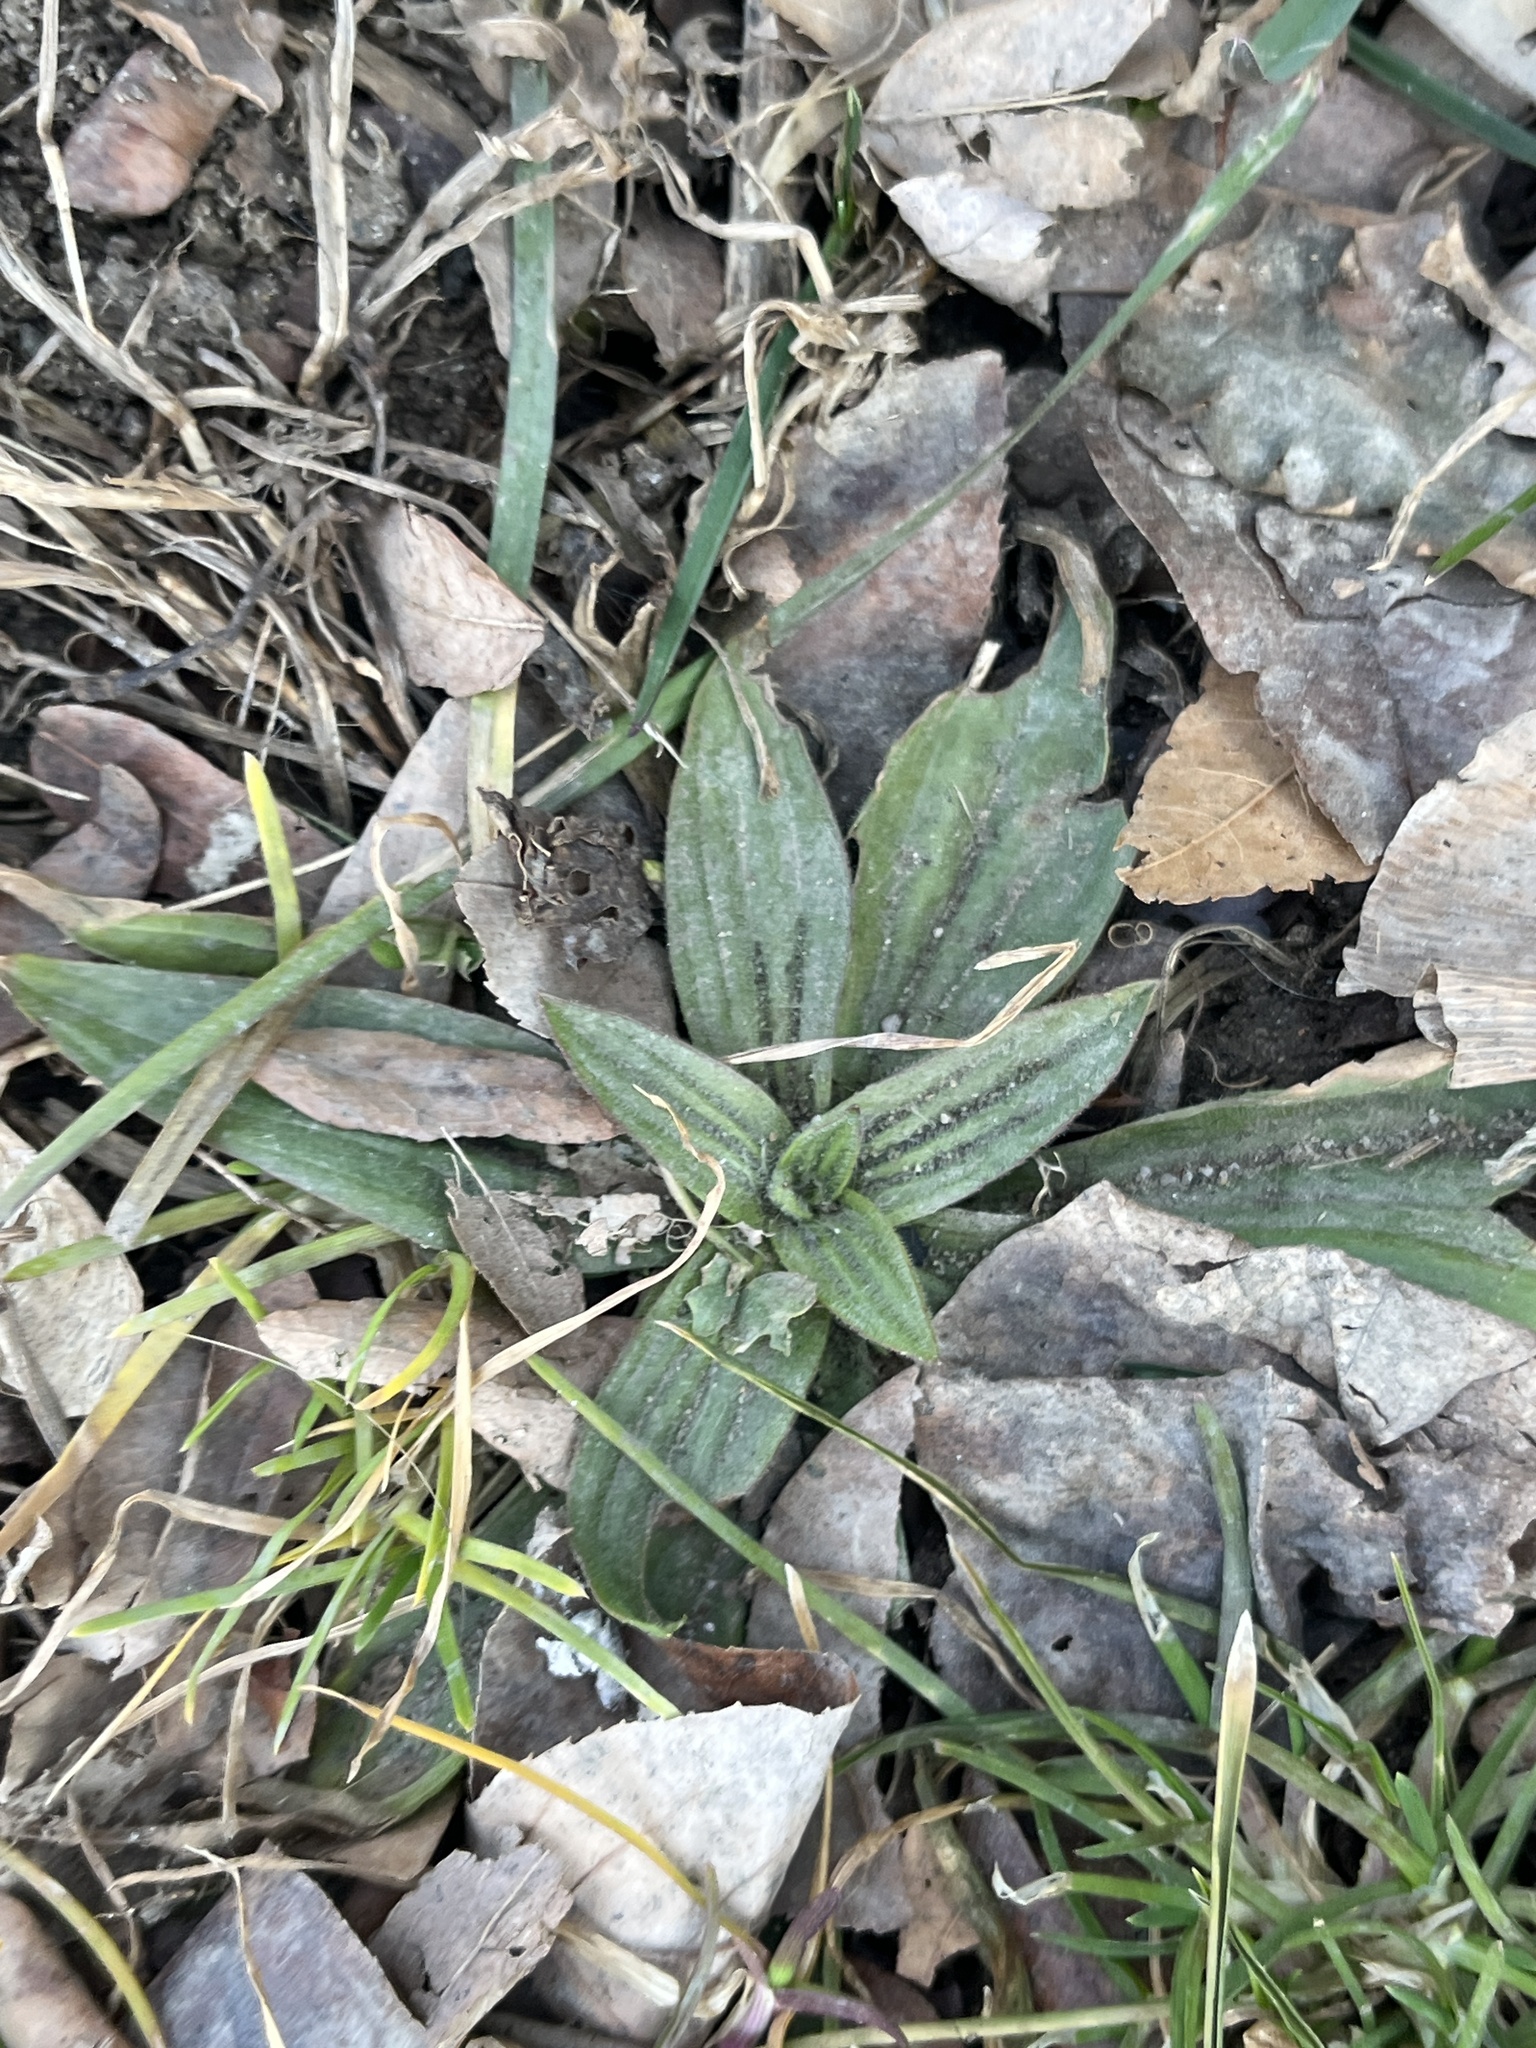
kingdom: Plantae
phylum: Tracheophyta
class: Magnoliopsida
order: Lamiales
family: Plantaginaceae
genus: Plantago
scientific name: Plantago lanceolata
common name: Ribwort plantain
